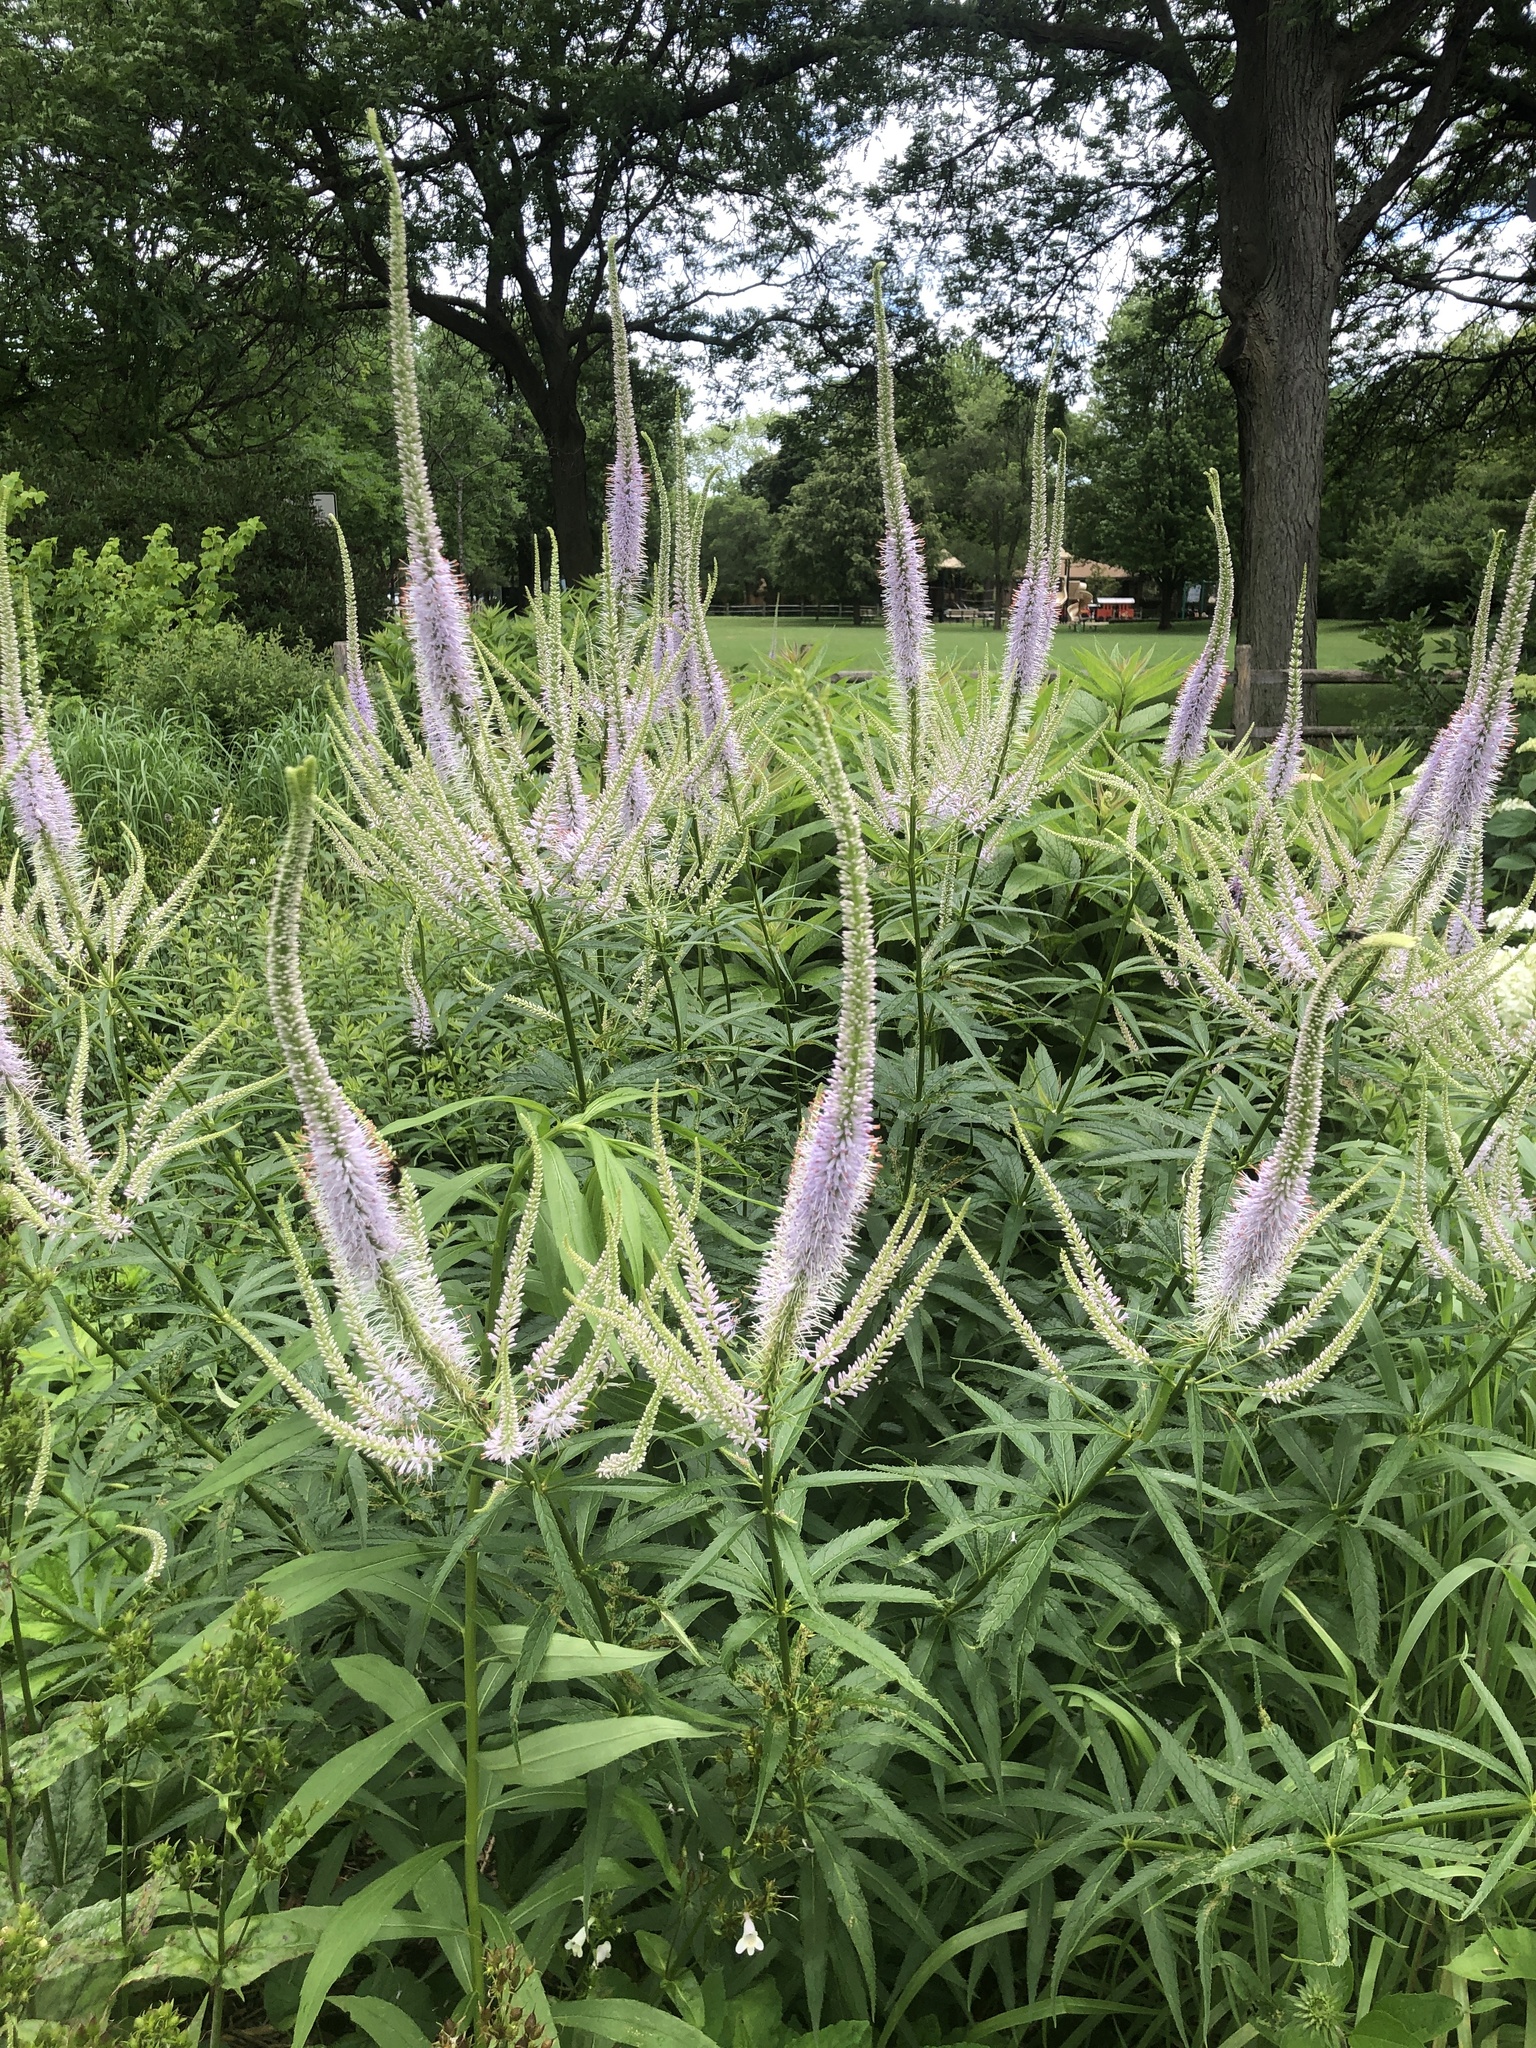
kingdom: Plantae
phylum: Tracheophyta
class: Magnoliopsida
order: Lamiales
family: Plantaginaceae
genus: Veronicastrum
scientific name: Veronicastrum virginicum
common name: Blackroot
